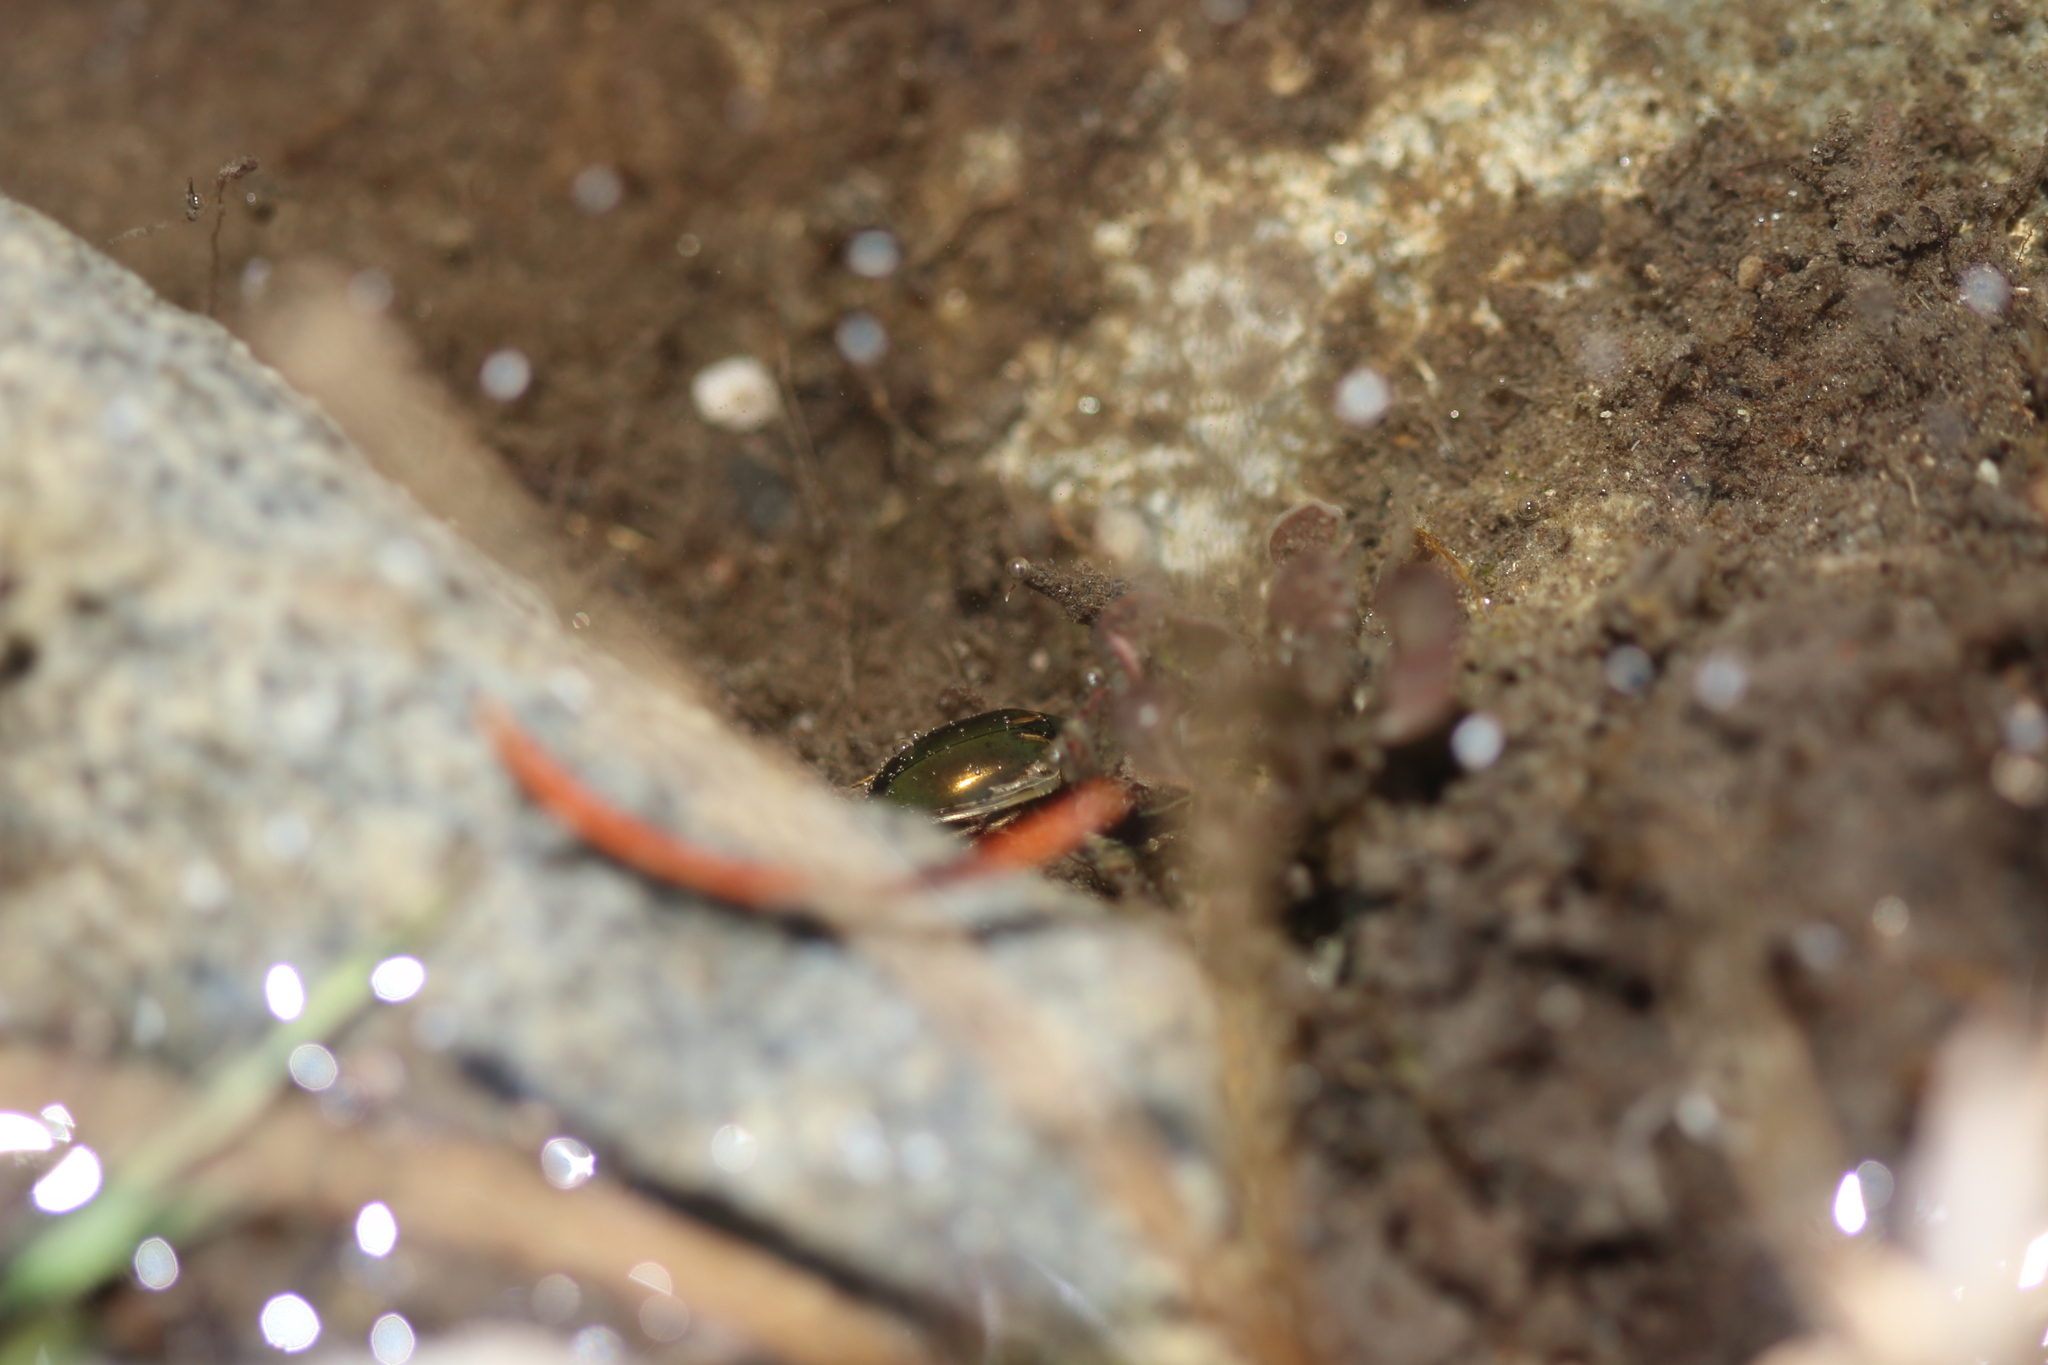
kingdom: Animalia
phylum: Arthropoda
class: Insecta
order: Coleoptera
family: Hydrophilidae
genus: Tropisternus
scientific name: Tropisternus lateralis
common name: Lateral-banded water scavenger beetle
